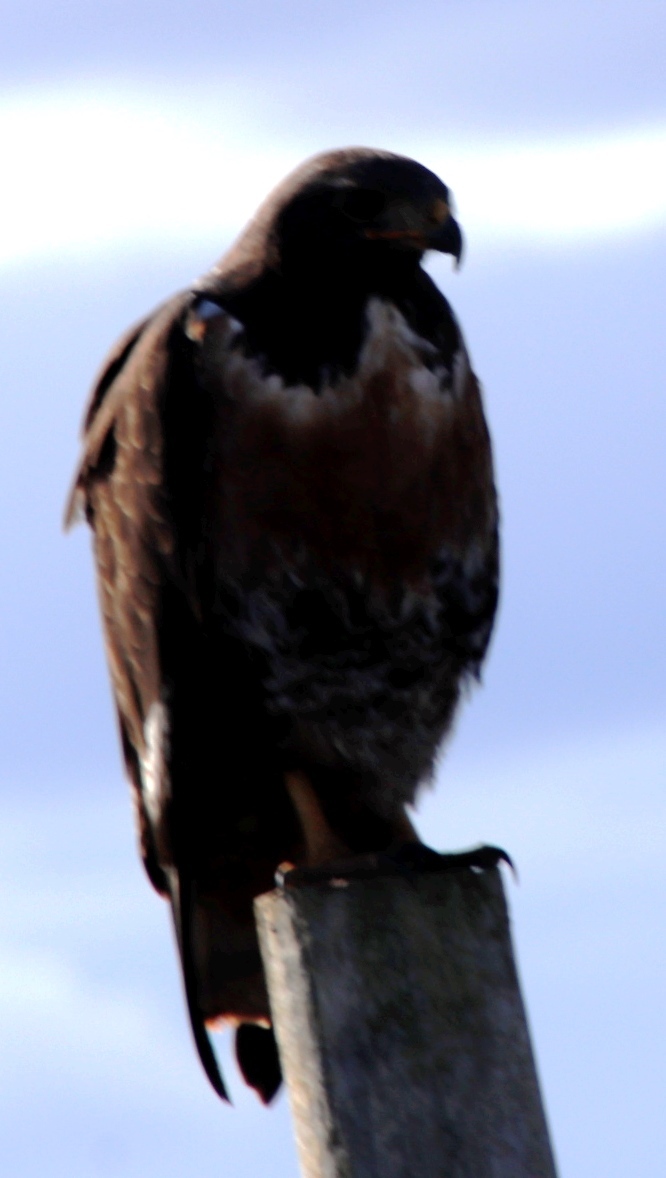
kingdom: Animalia
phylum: Chordata
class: Aves
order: Accipitriformes
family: Accipitridae
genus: Buteo
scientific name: Buteo rufofuscus
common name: Jackal buzzard
